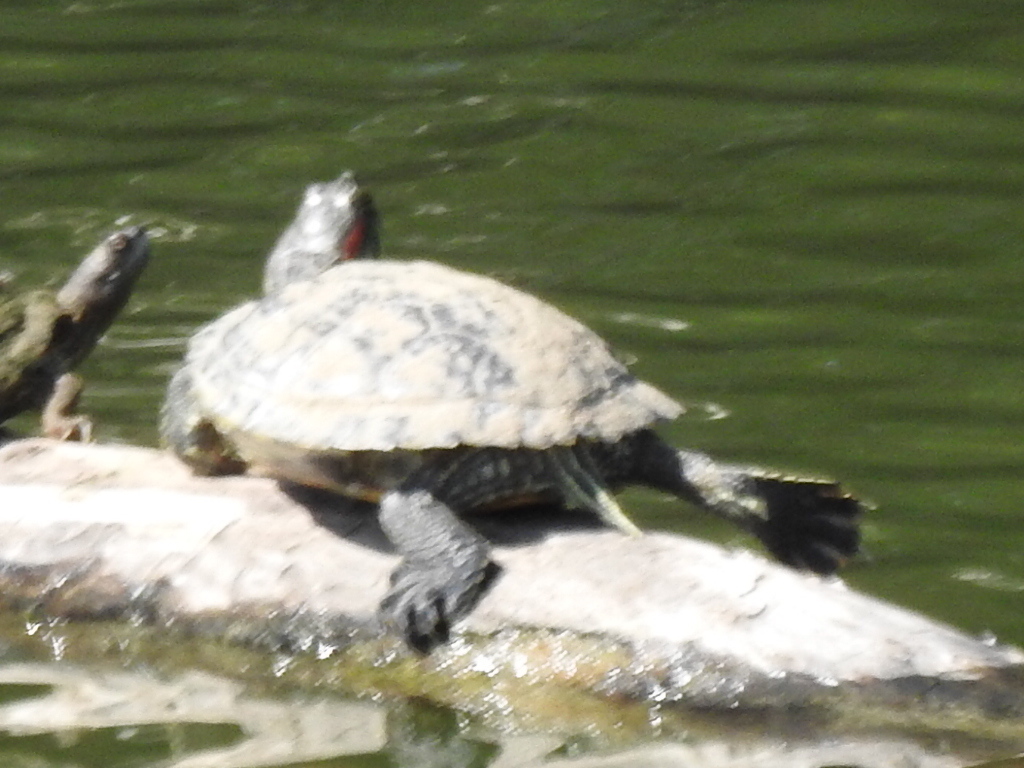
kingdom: Animalia
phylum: Chordata
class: Testudines
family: Emydidae
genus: Trachemys
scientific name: Trachemys scripta
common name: Slider
